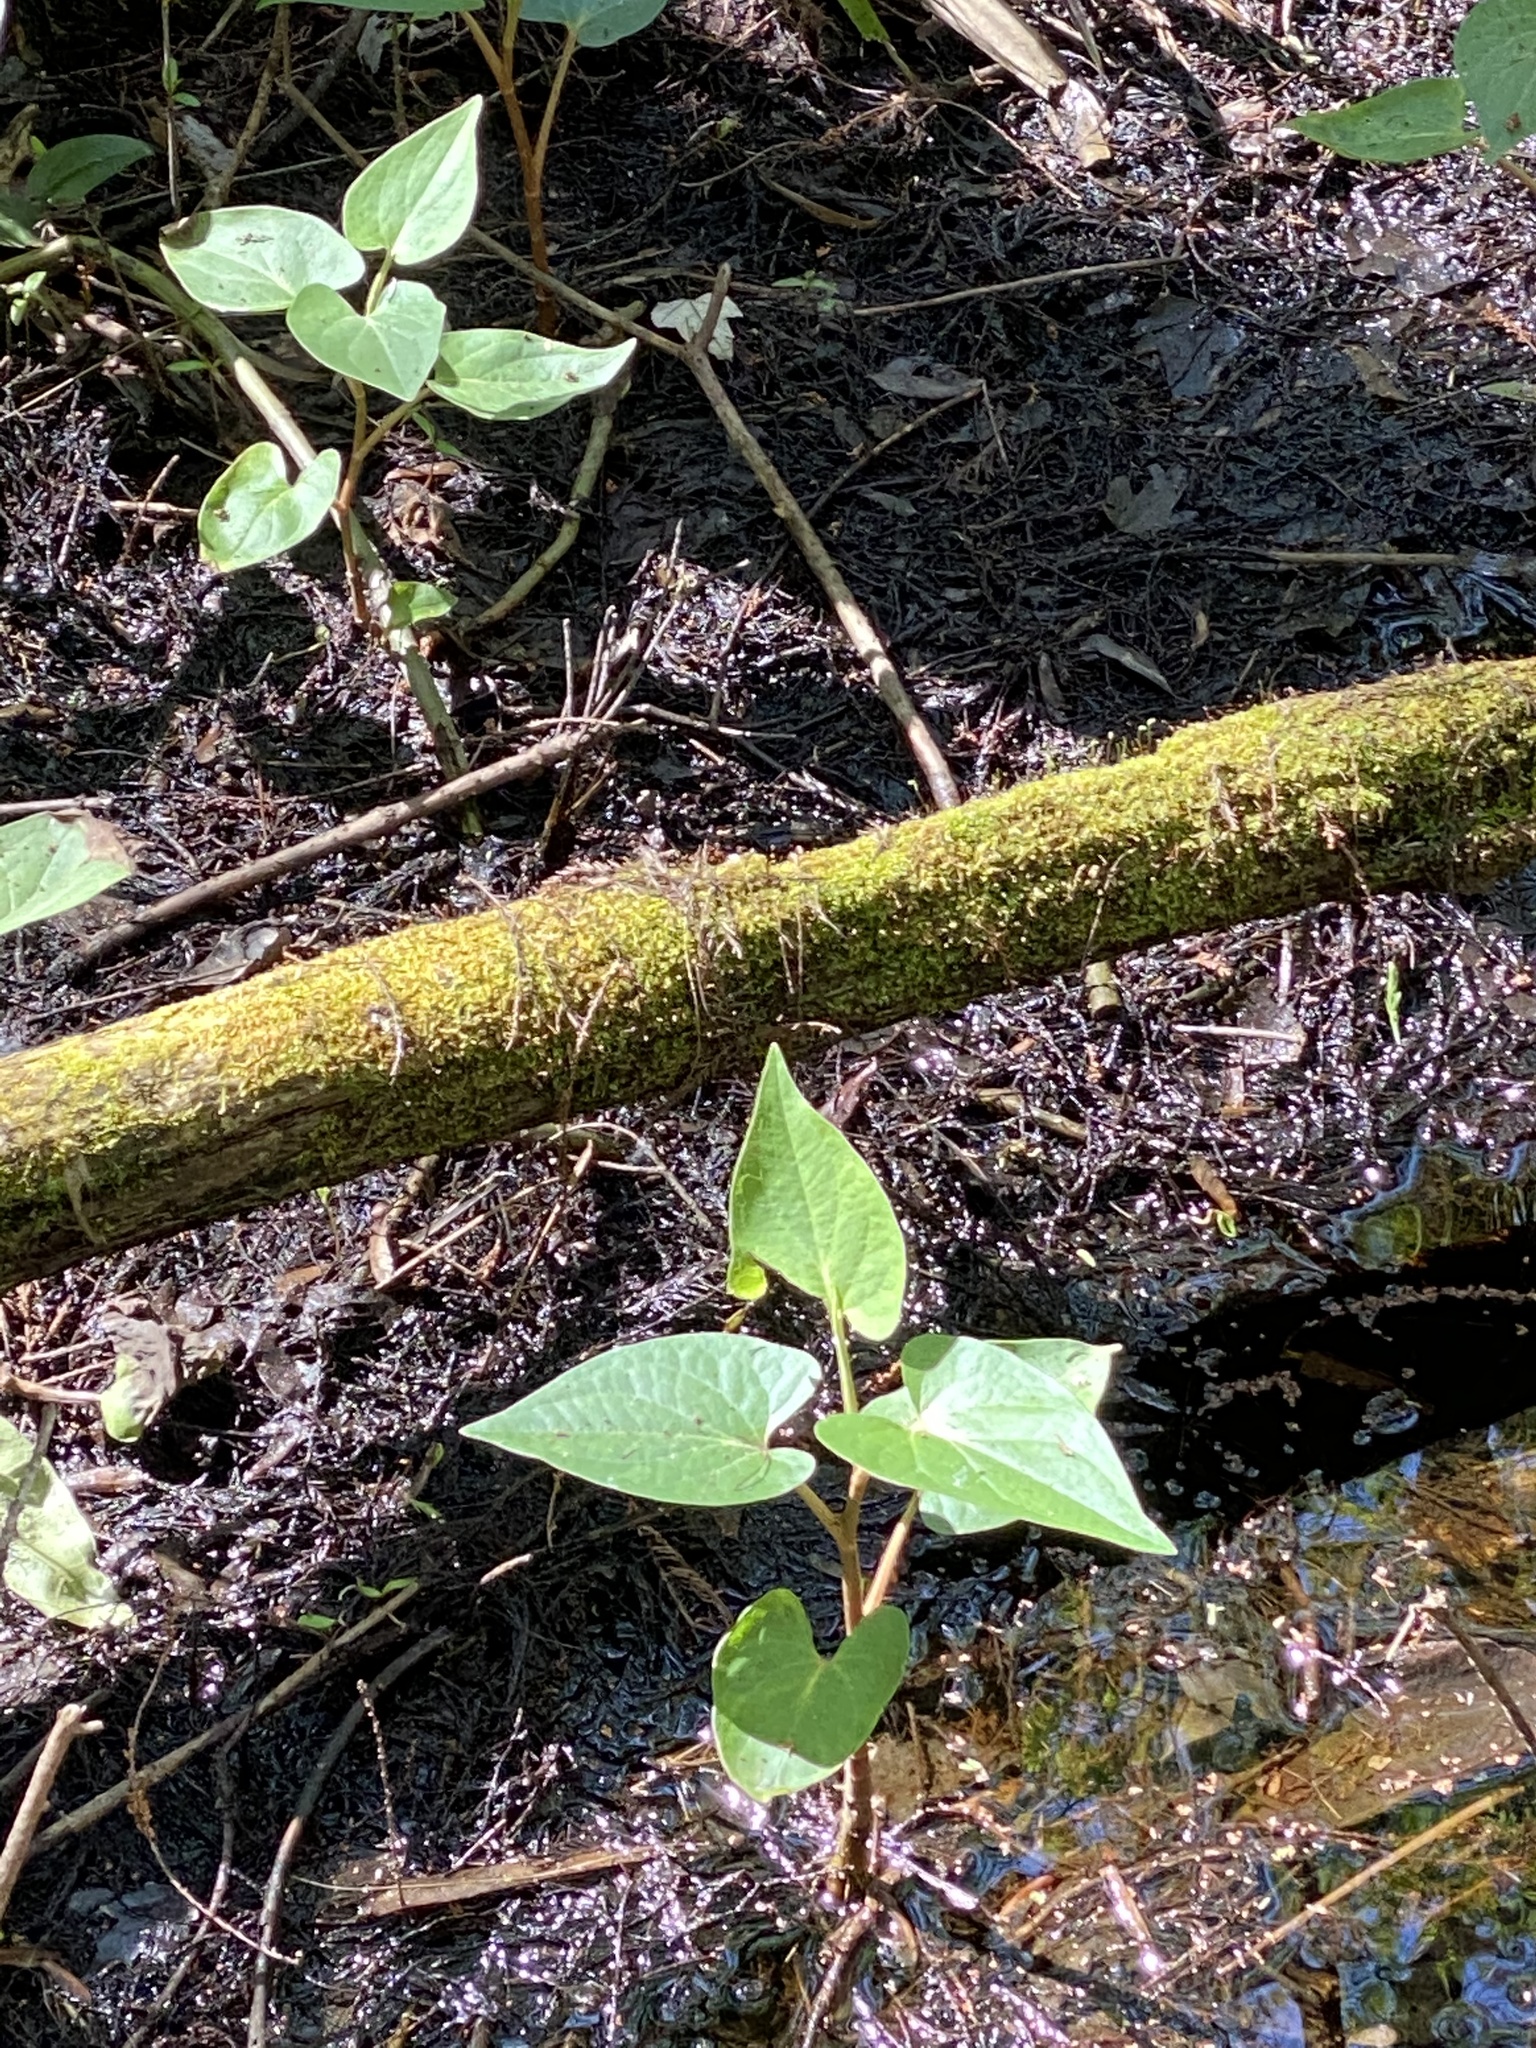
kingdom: Plantae
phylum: Tracheophyta
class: Magnoliopsida
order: Piperales
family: Saururaceae
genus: Saururus
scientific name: Saururus cernuus
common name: Lizard's-tail
